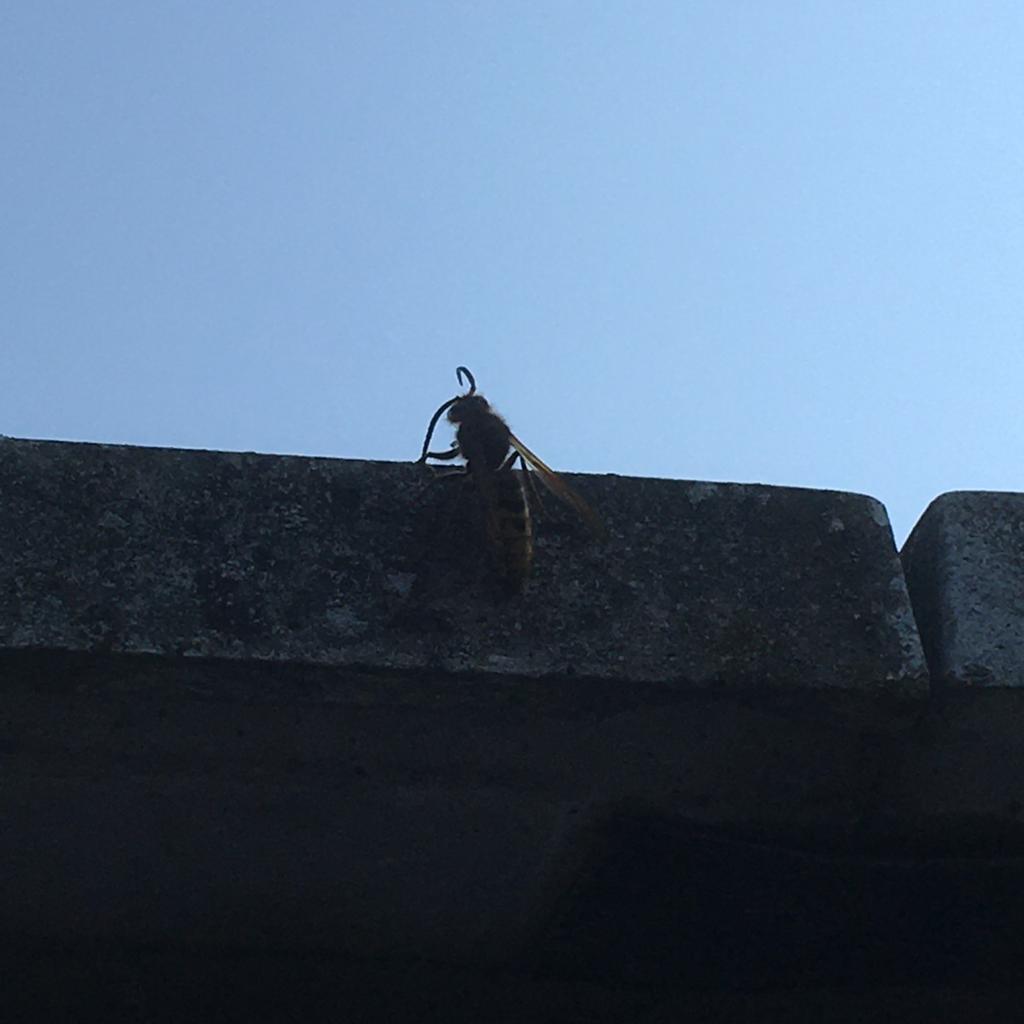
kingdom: Animalia
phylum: Arthropoda
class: Insecta
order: Hymenoptera
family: Vespidae
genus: Vespa
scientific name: Vespa crabro
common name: Hornet
